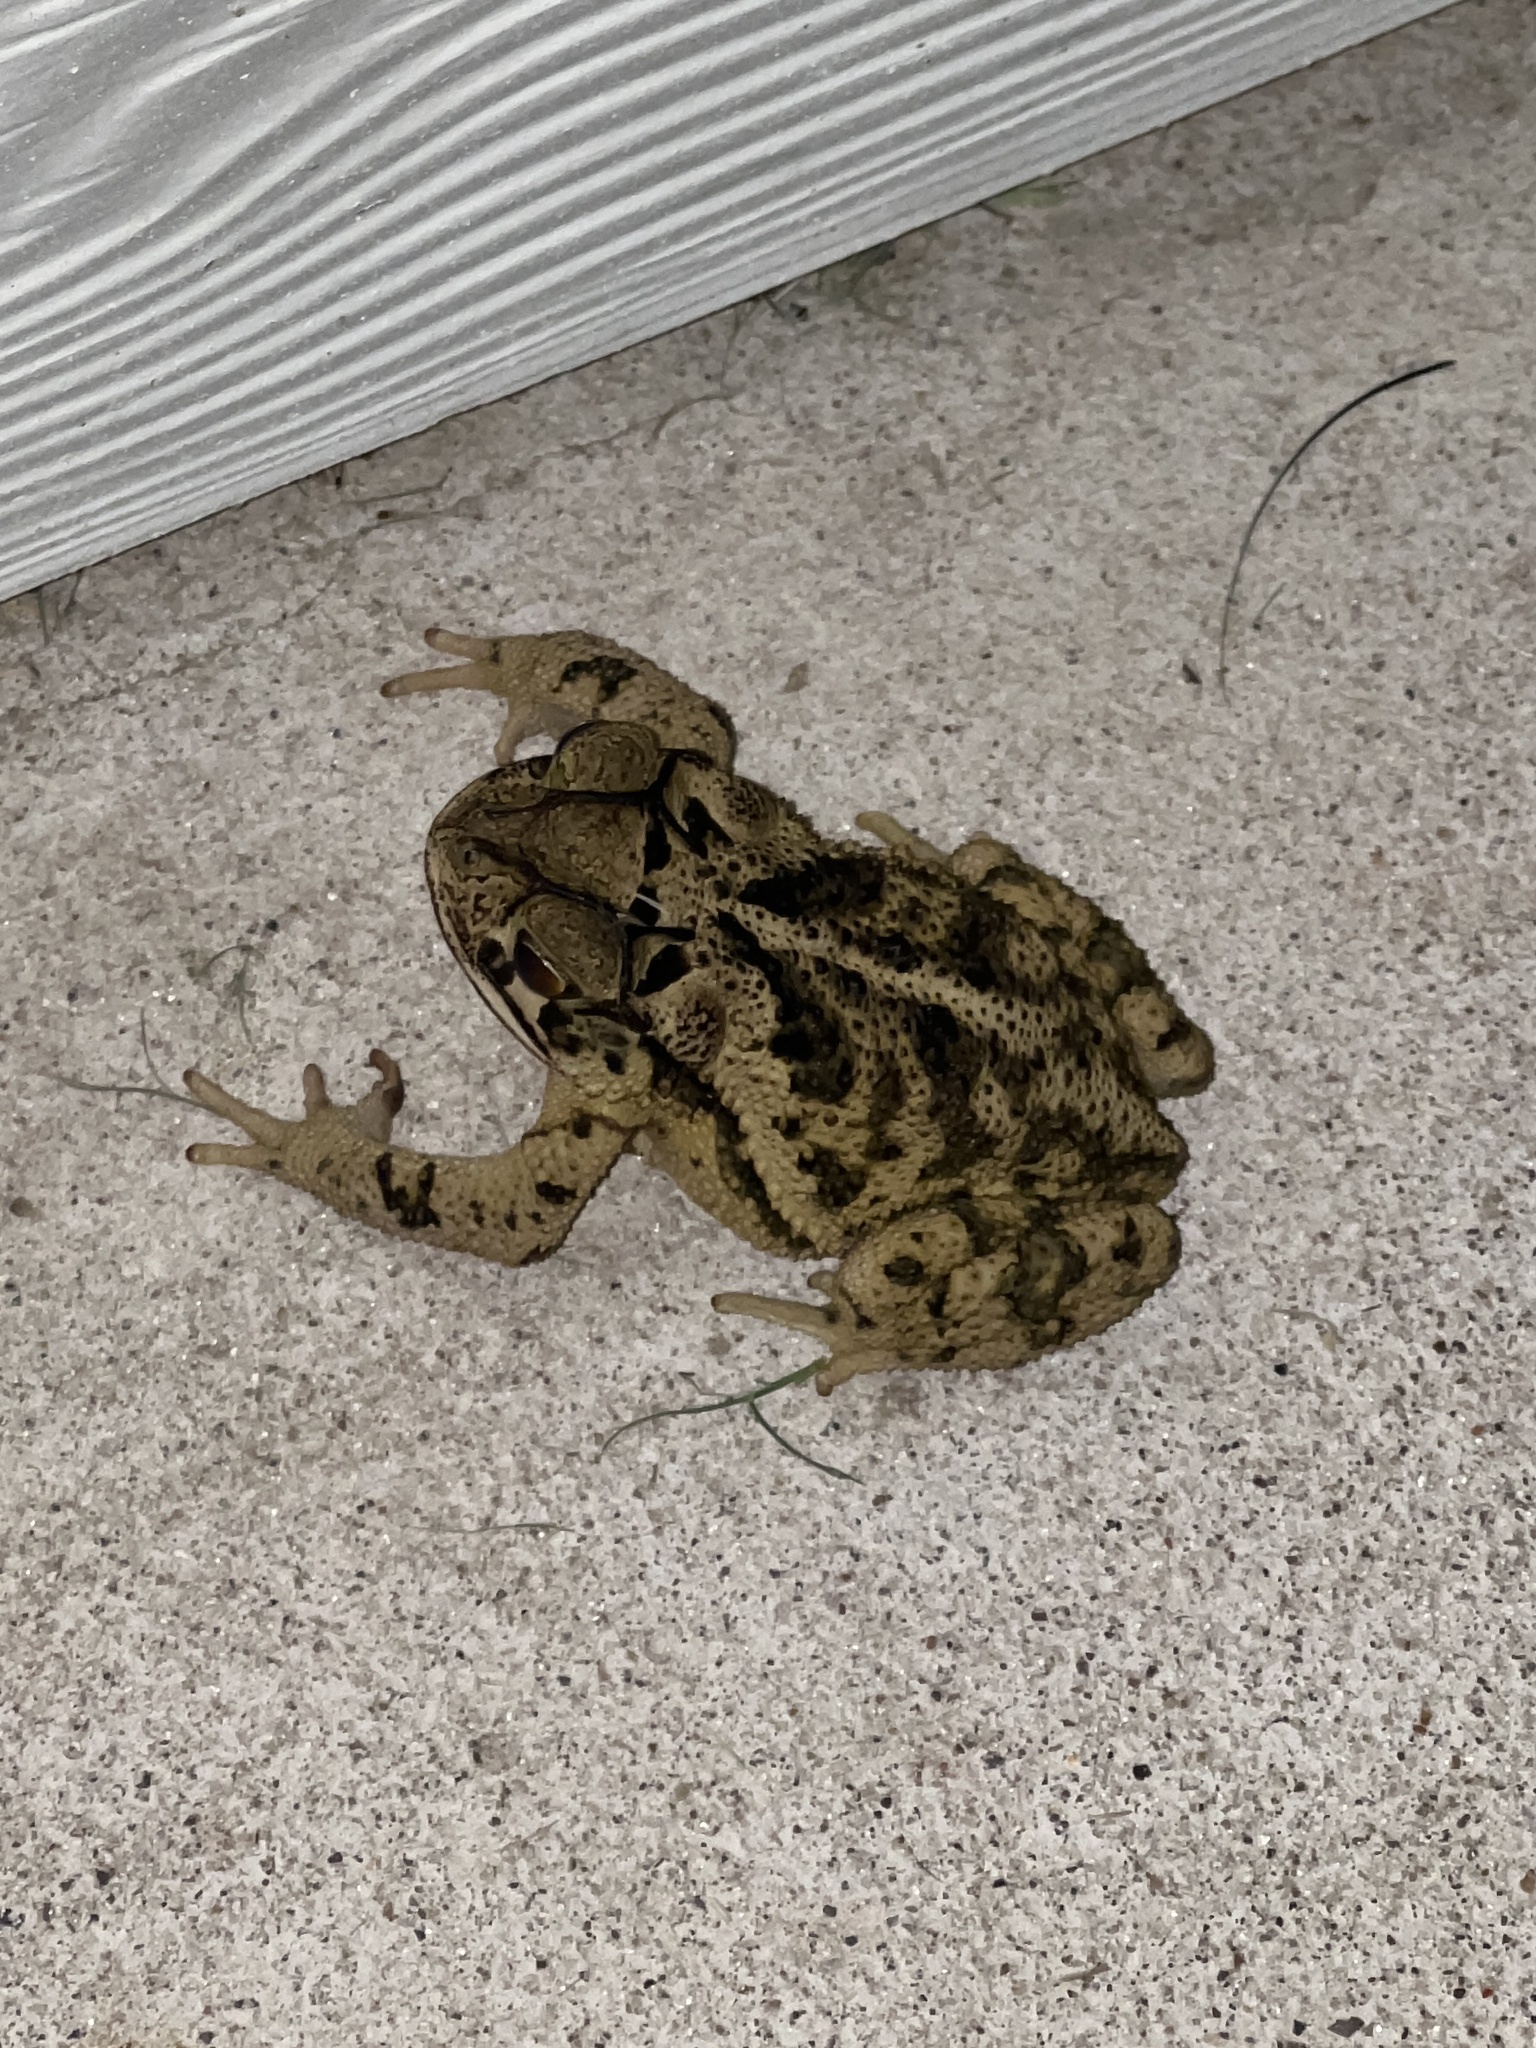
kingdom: Animalia
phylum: Chordata
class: Amphibia
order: Anura
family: Bufonidae
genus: Incilius
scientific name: Incilius nebulifer
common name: Gulf coast toad
